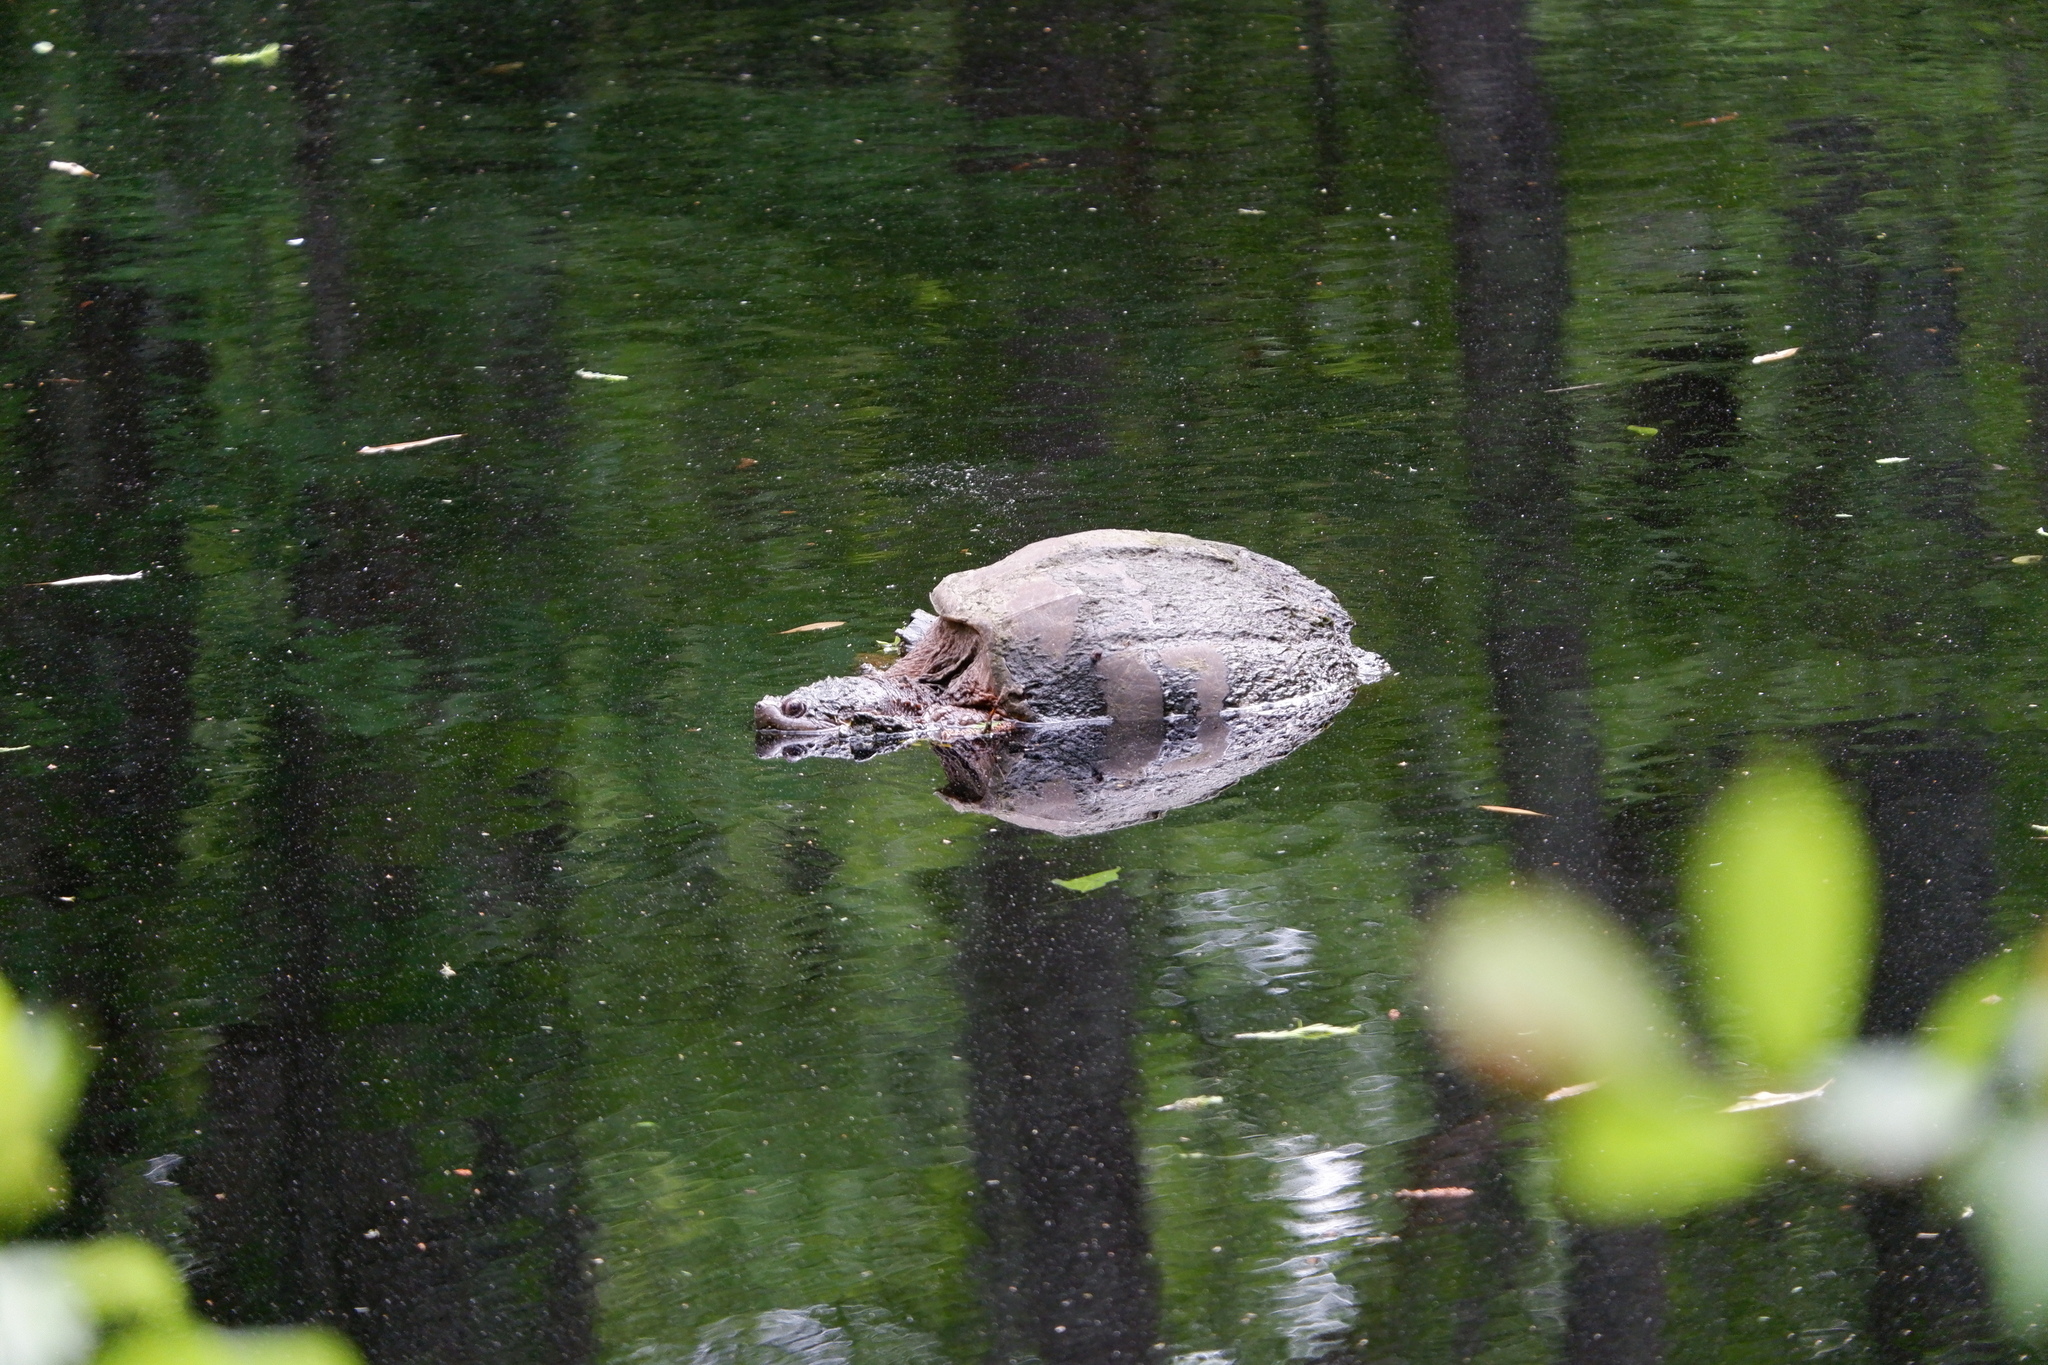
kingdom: Animalia
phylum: Chordata
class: Testudines
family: Chelydridae
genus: Chelydra
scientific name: Chelydra serpentina
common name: Common snapping turtle
